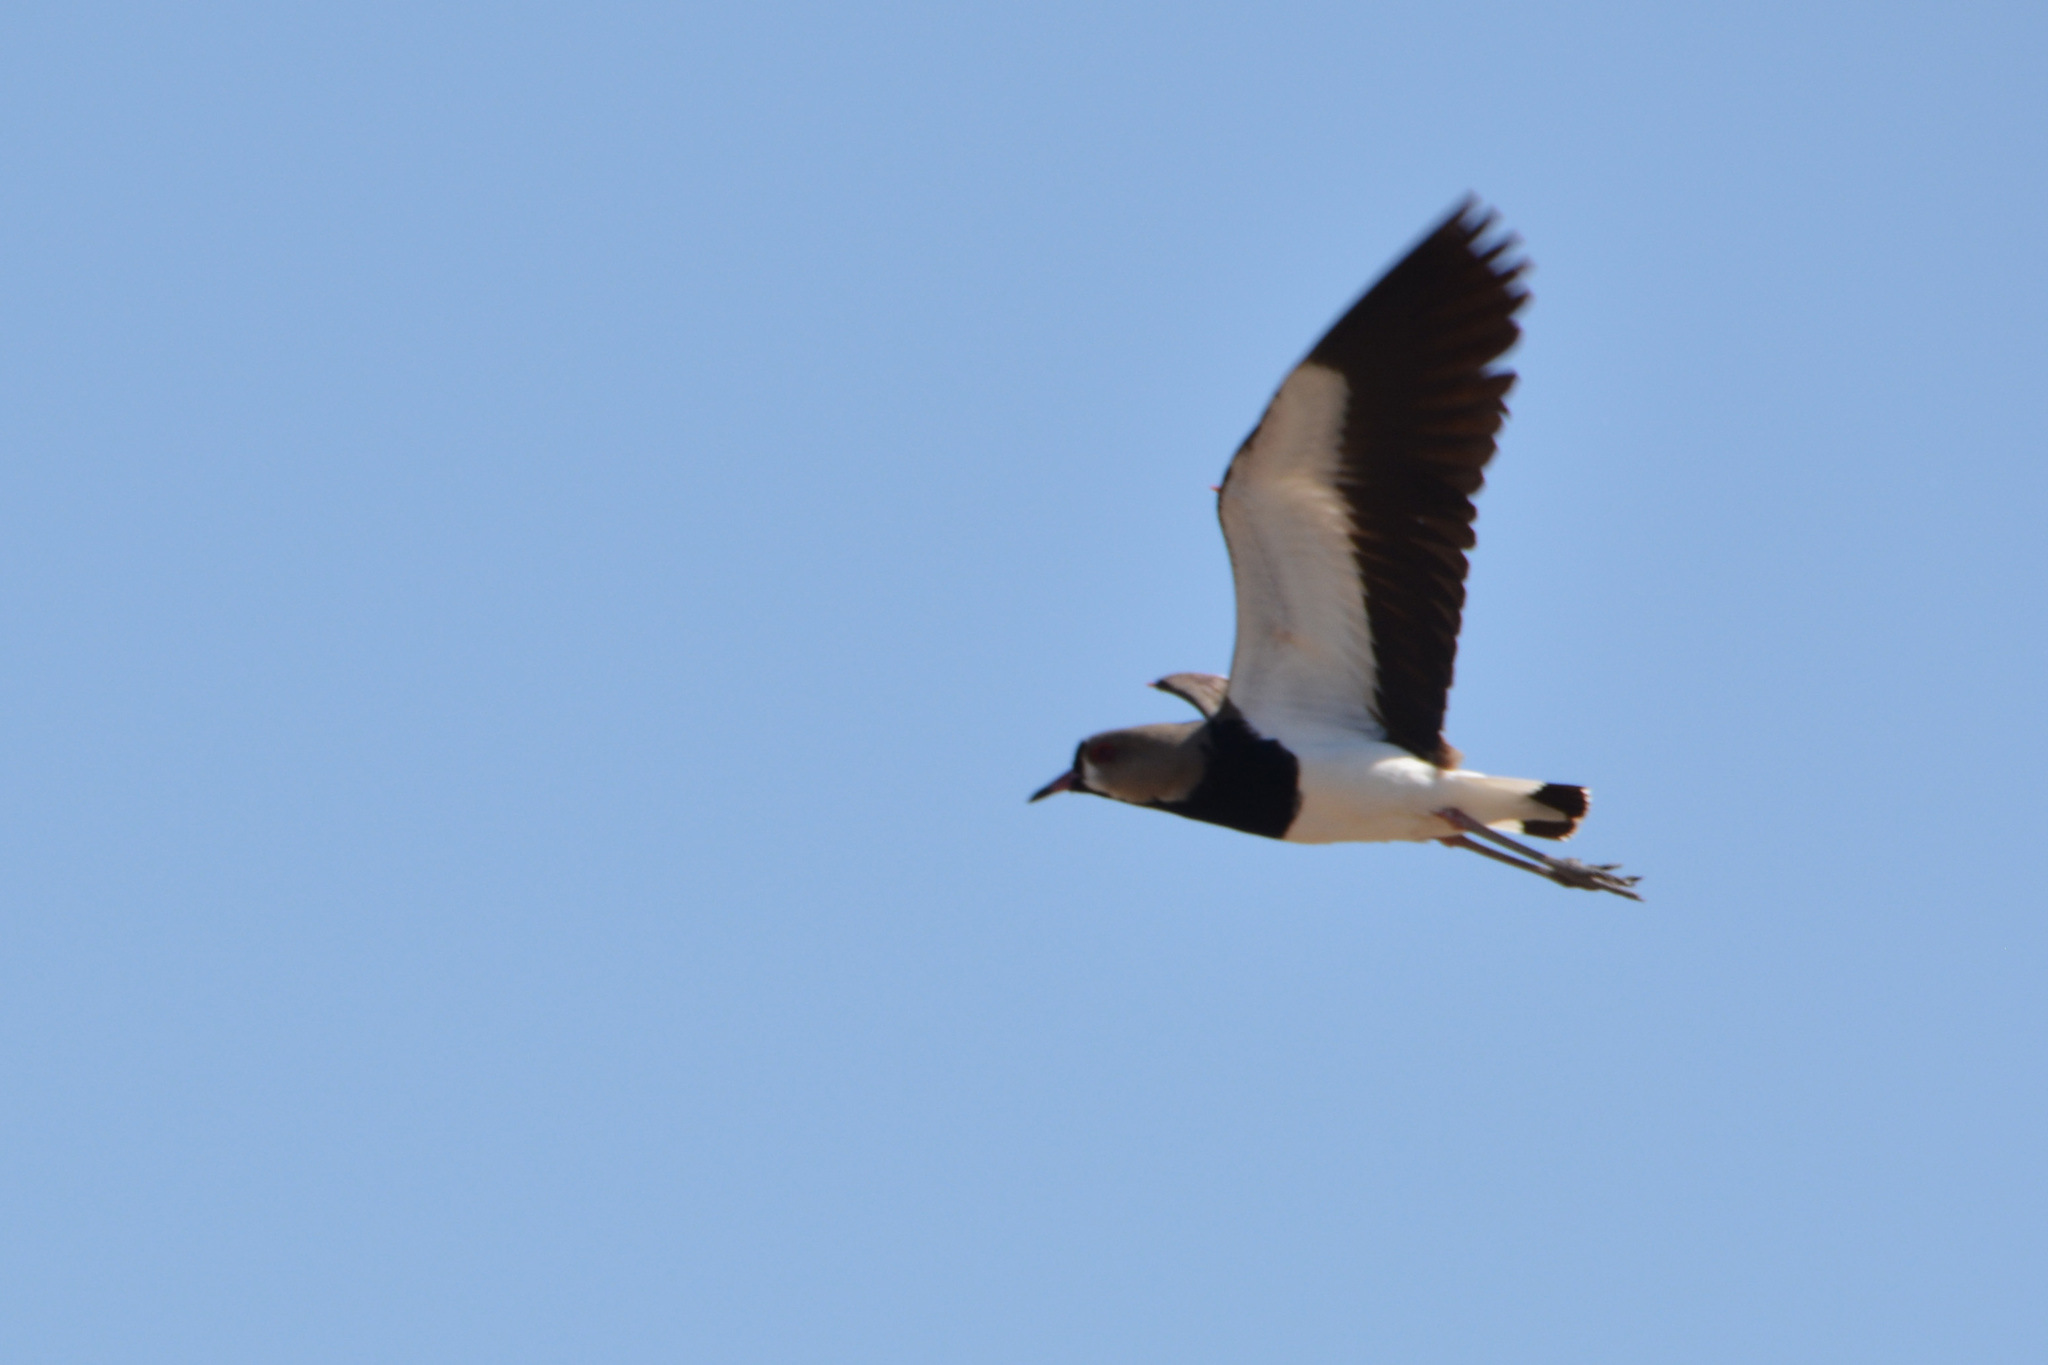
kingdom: Animalia
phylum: Chordata
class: Aves
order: Charadriiformes
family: Charadriidae
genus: Vanellus
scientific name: Vanellus chilensis
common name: Southern lapwing
